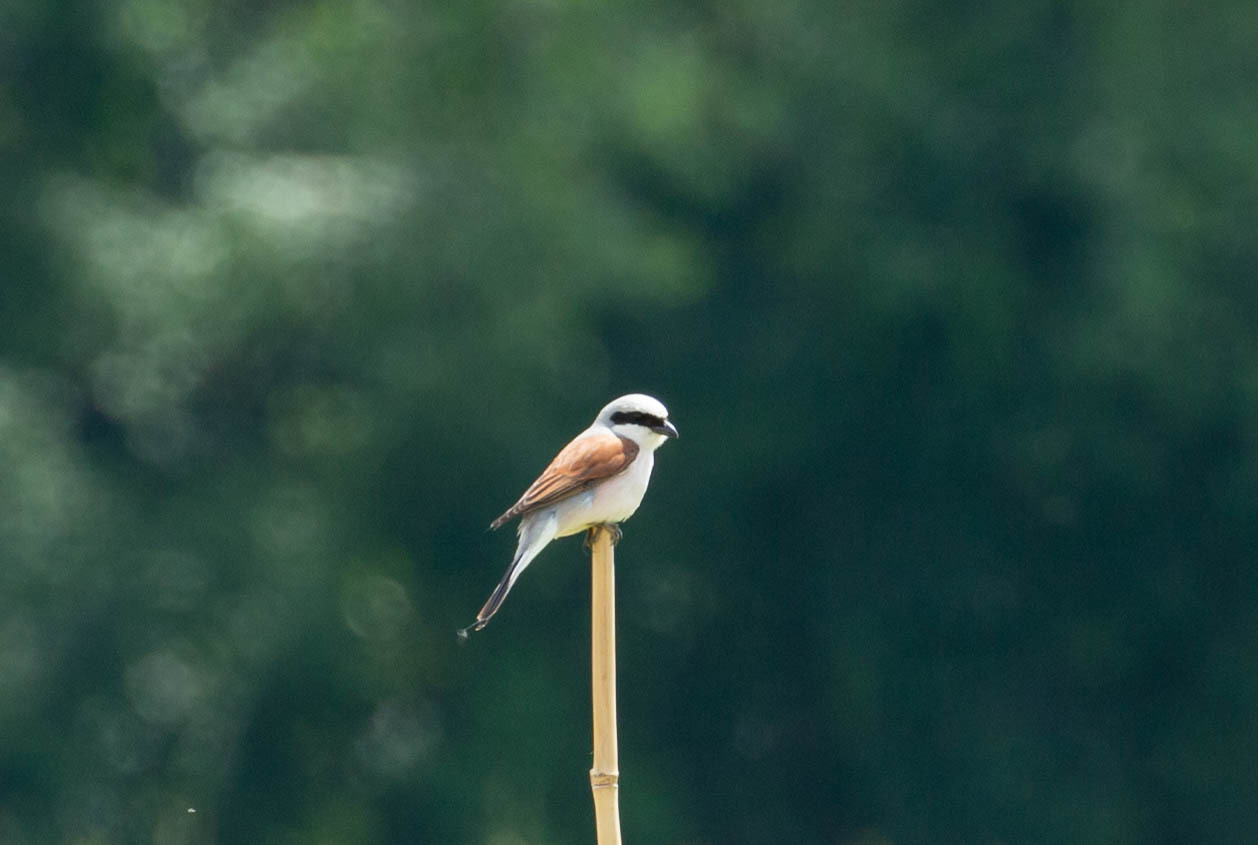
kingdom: Animalia
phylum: Chordata
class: Aves
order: Passeriformes
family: Laniidae
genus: Lanius
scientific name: Lanius collurio
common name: Red-backed shrike
